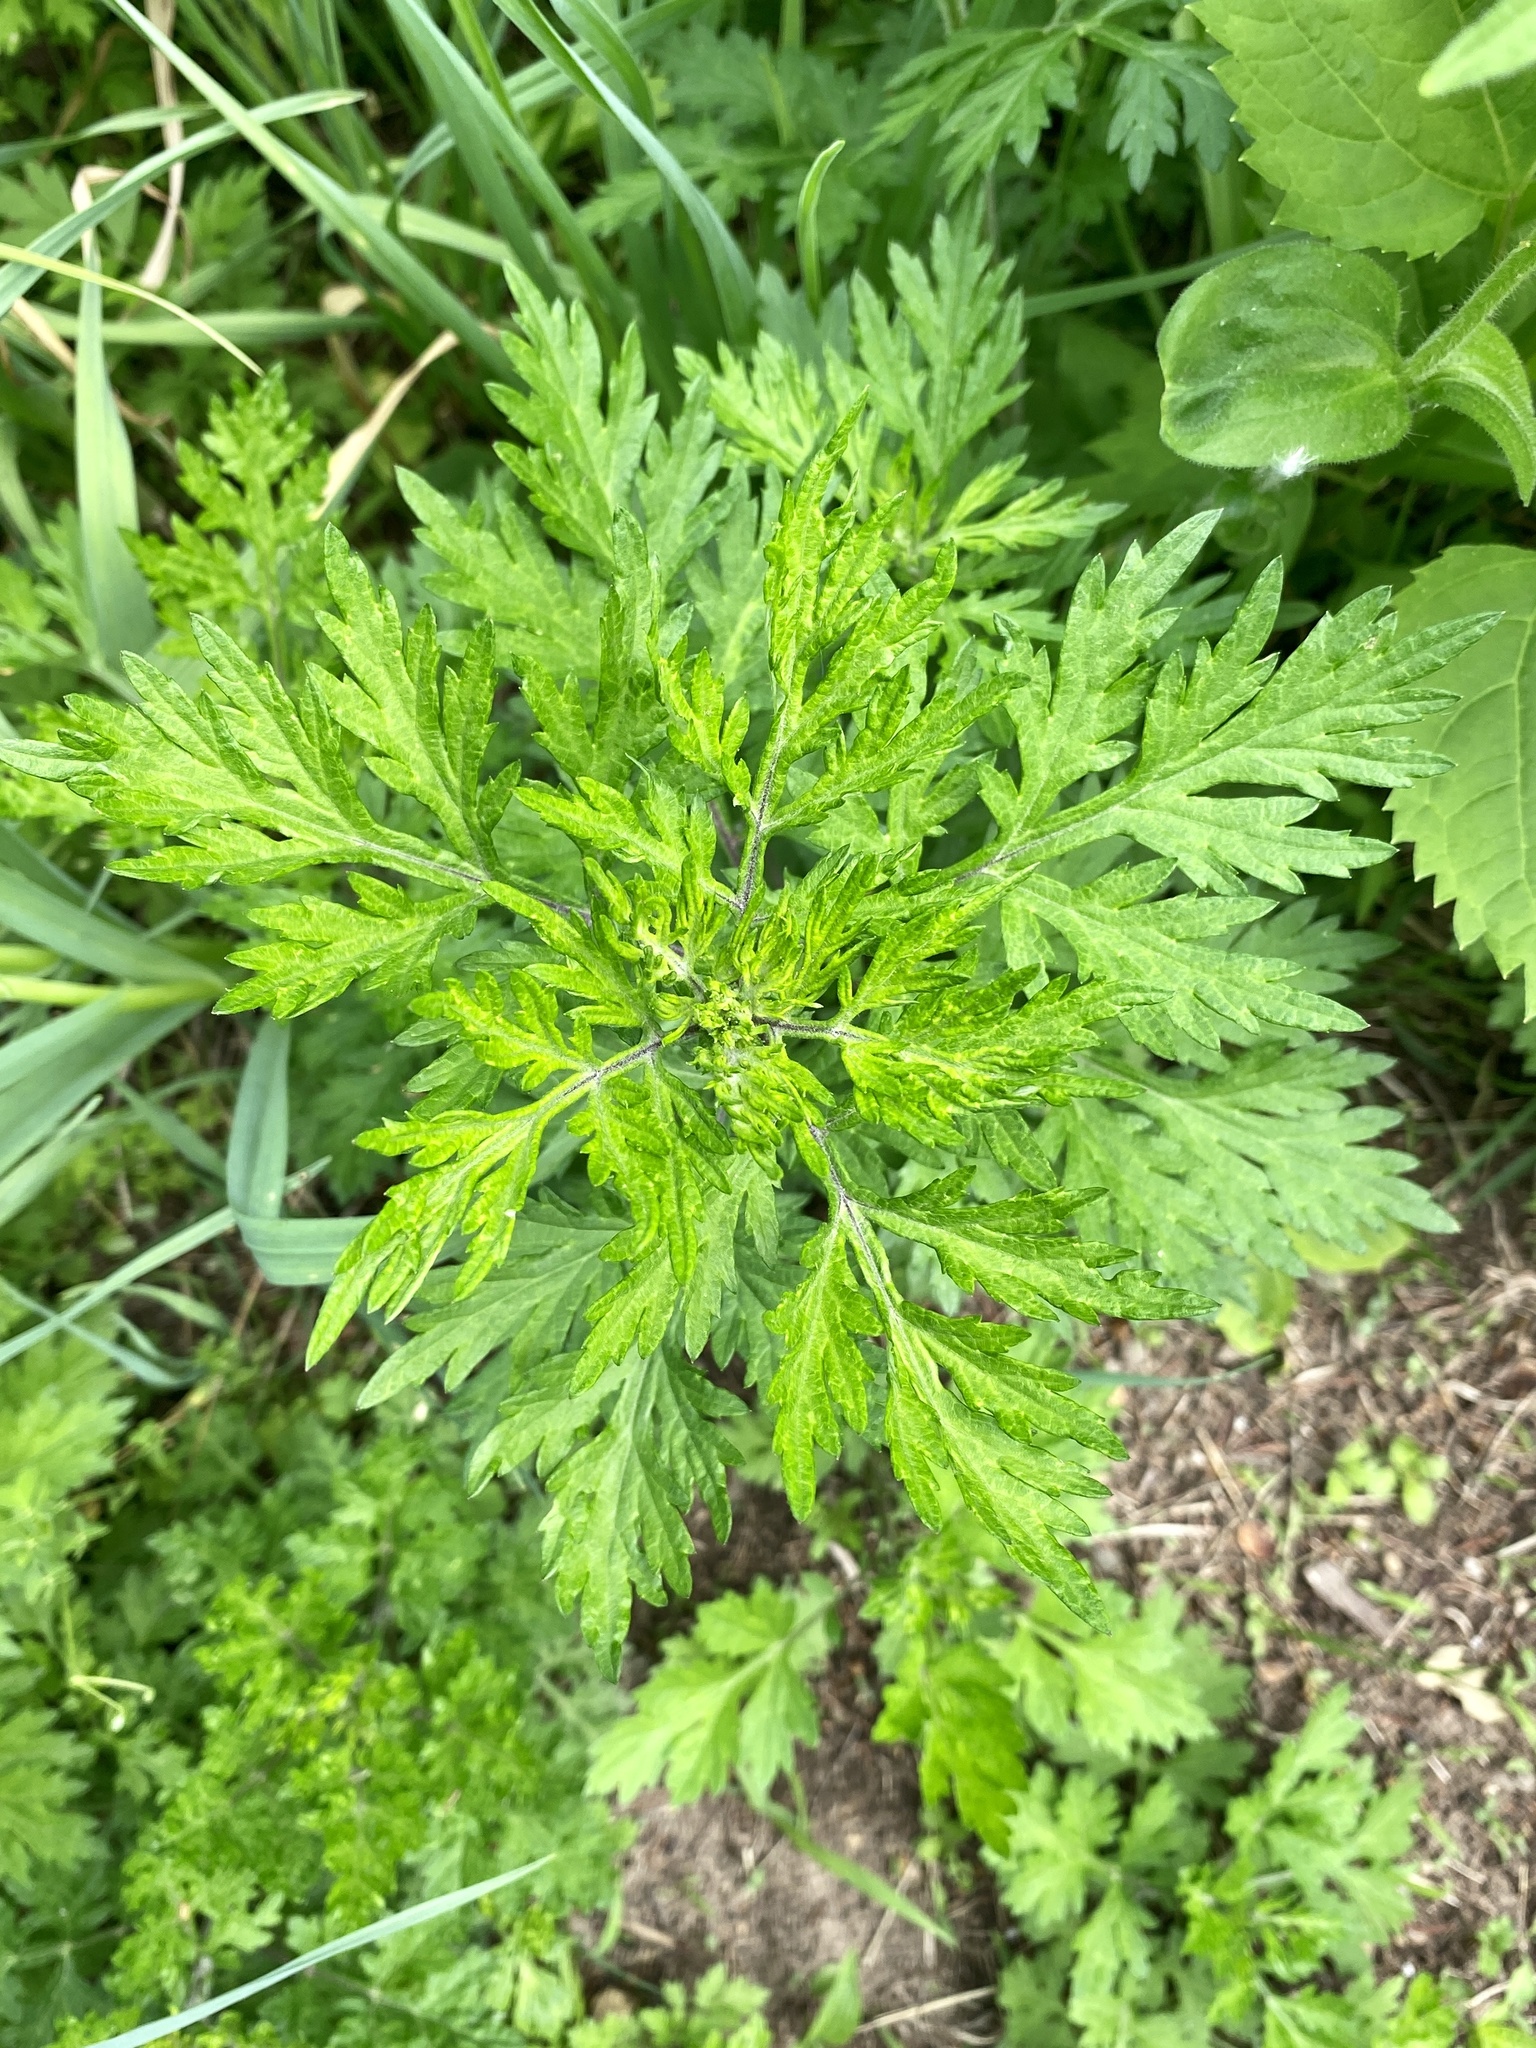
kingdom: Plantae
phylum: Tracheophyta
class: Magnoliopsida
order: Asterales
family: Asteraceae
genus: Artemisia
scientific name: Artemisia vulgaris
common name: Mugwort
